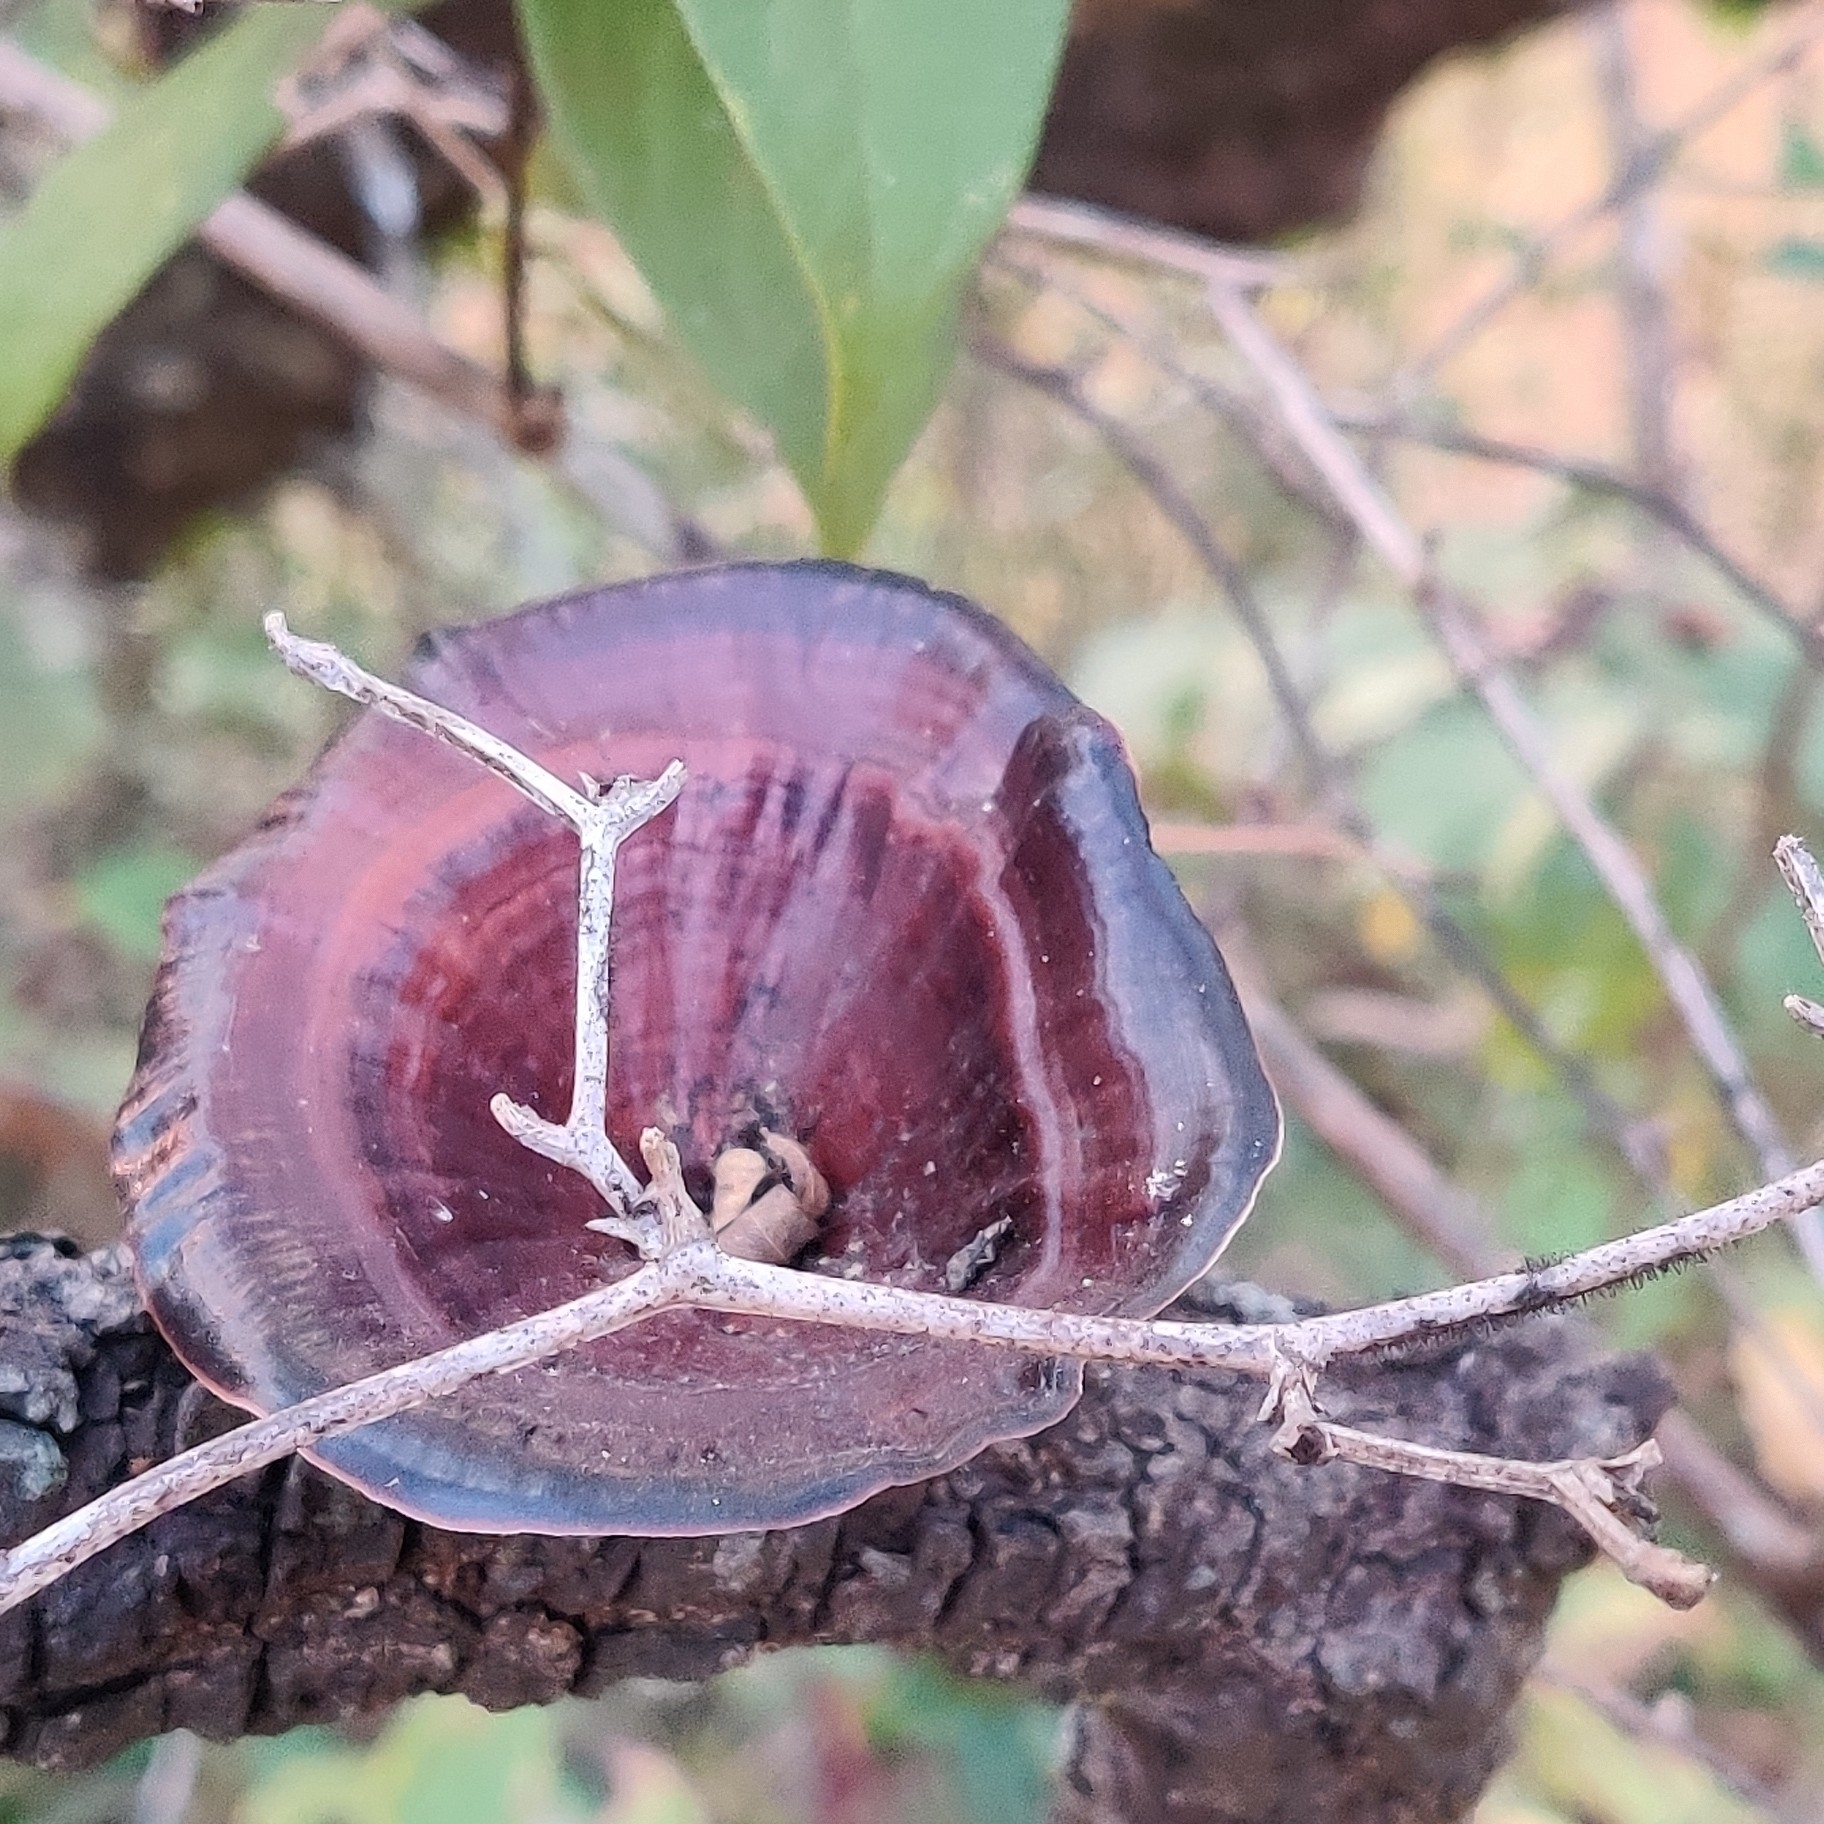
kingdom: Fungi
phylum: Basidiomycota
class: Agaricomycetes
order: Polyporales
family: Polyporaceae
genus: Microporus
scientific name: Microporus xanthopus
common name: Yellow-stemmed micropore
